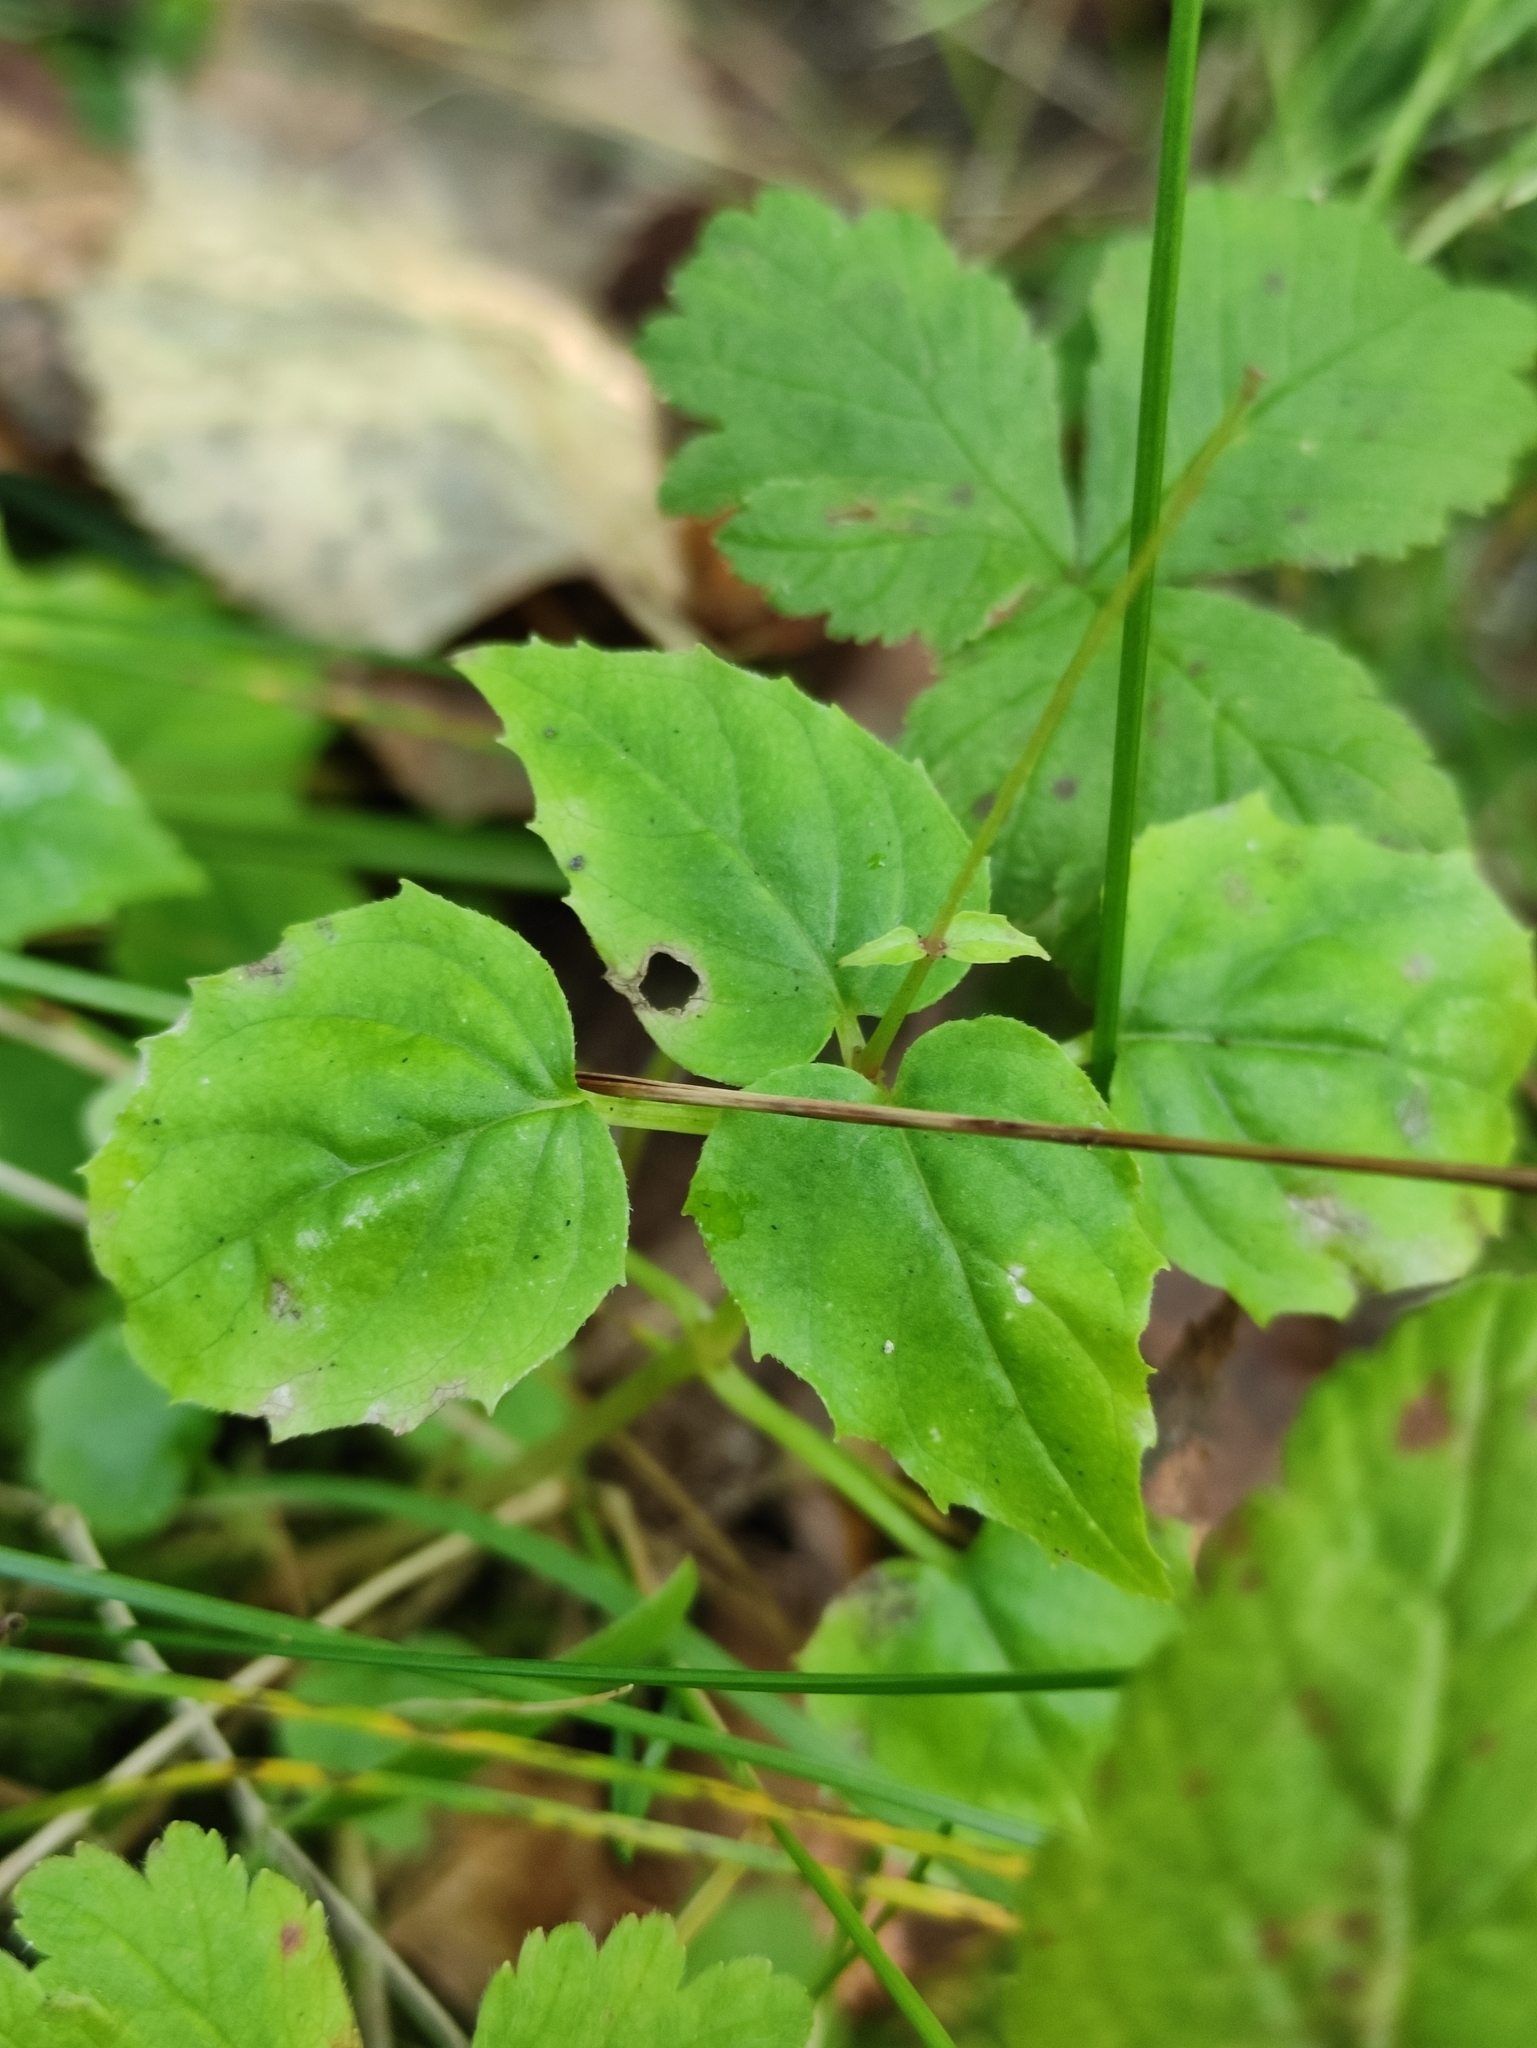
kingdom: Plantae
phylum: Tracheophyta
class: Magnoliopsida
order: Myrtales
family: Onagraceae
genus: Circaea
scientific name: Circaea alpina
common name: Alpine enchanter's-nightshade
